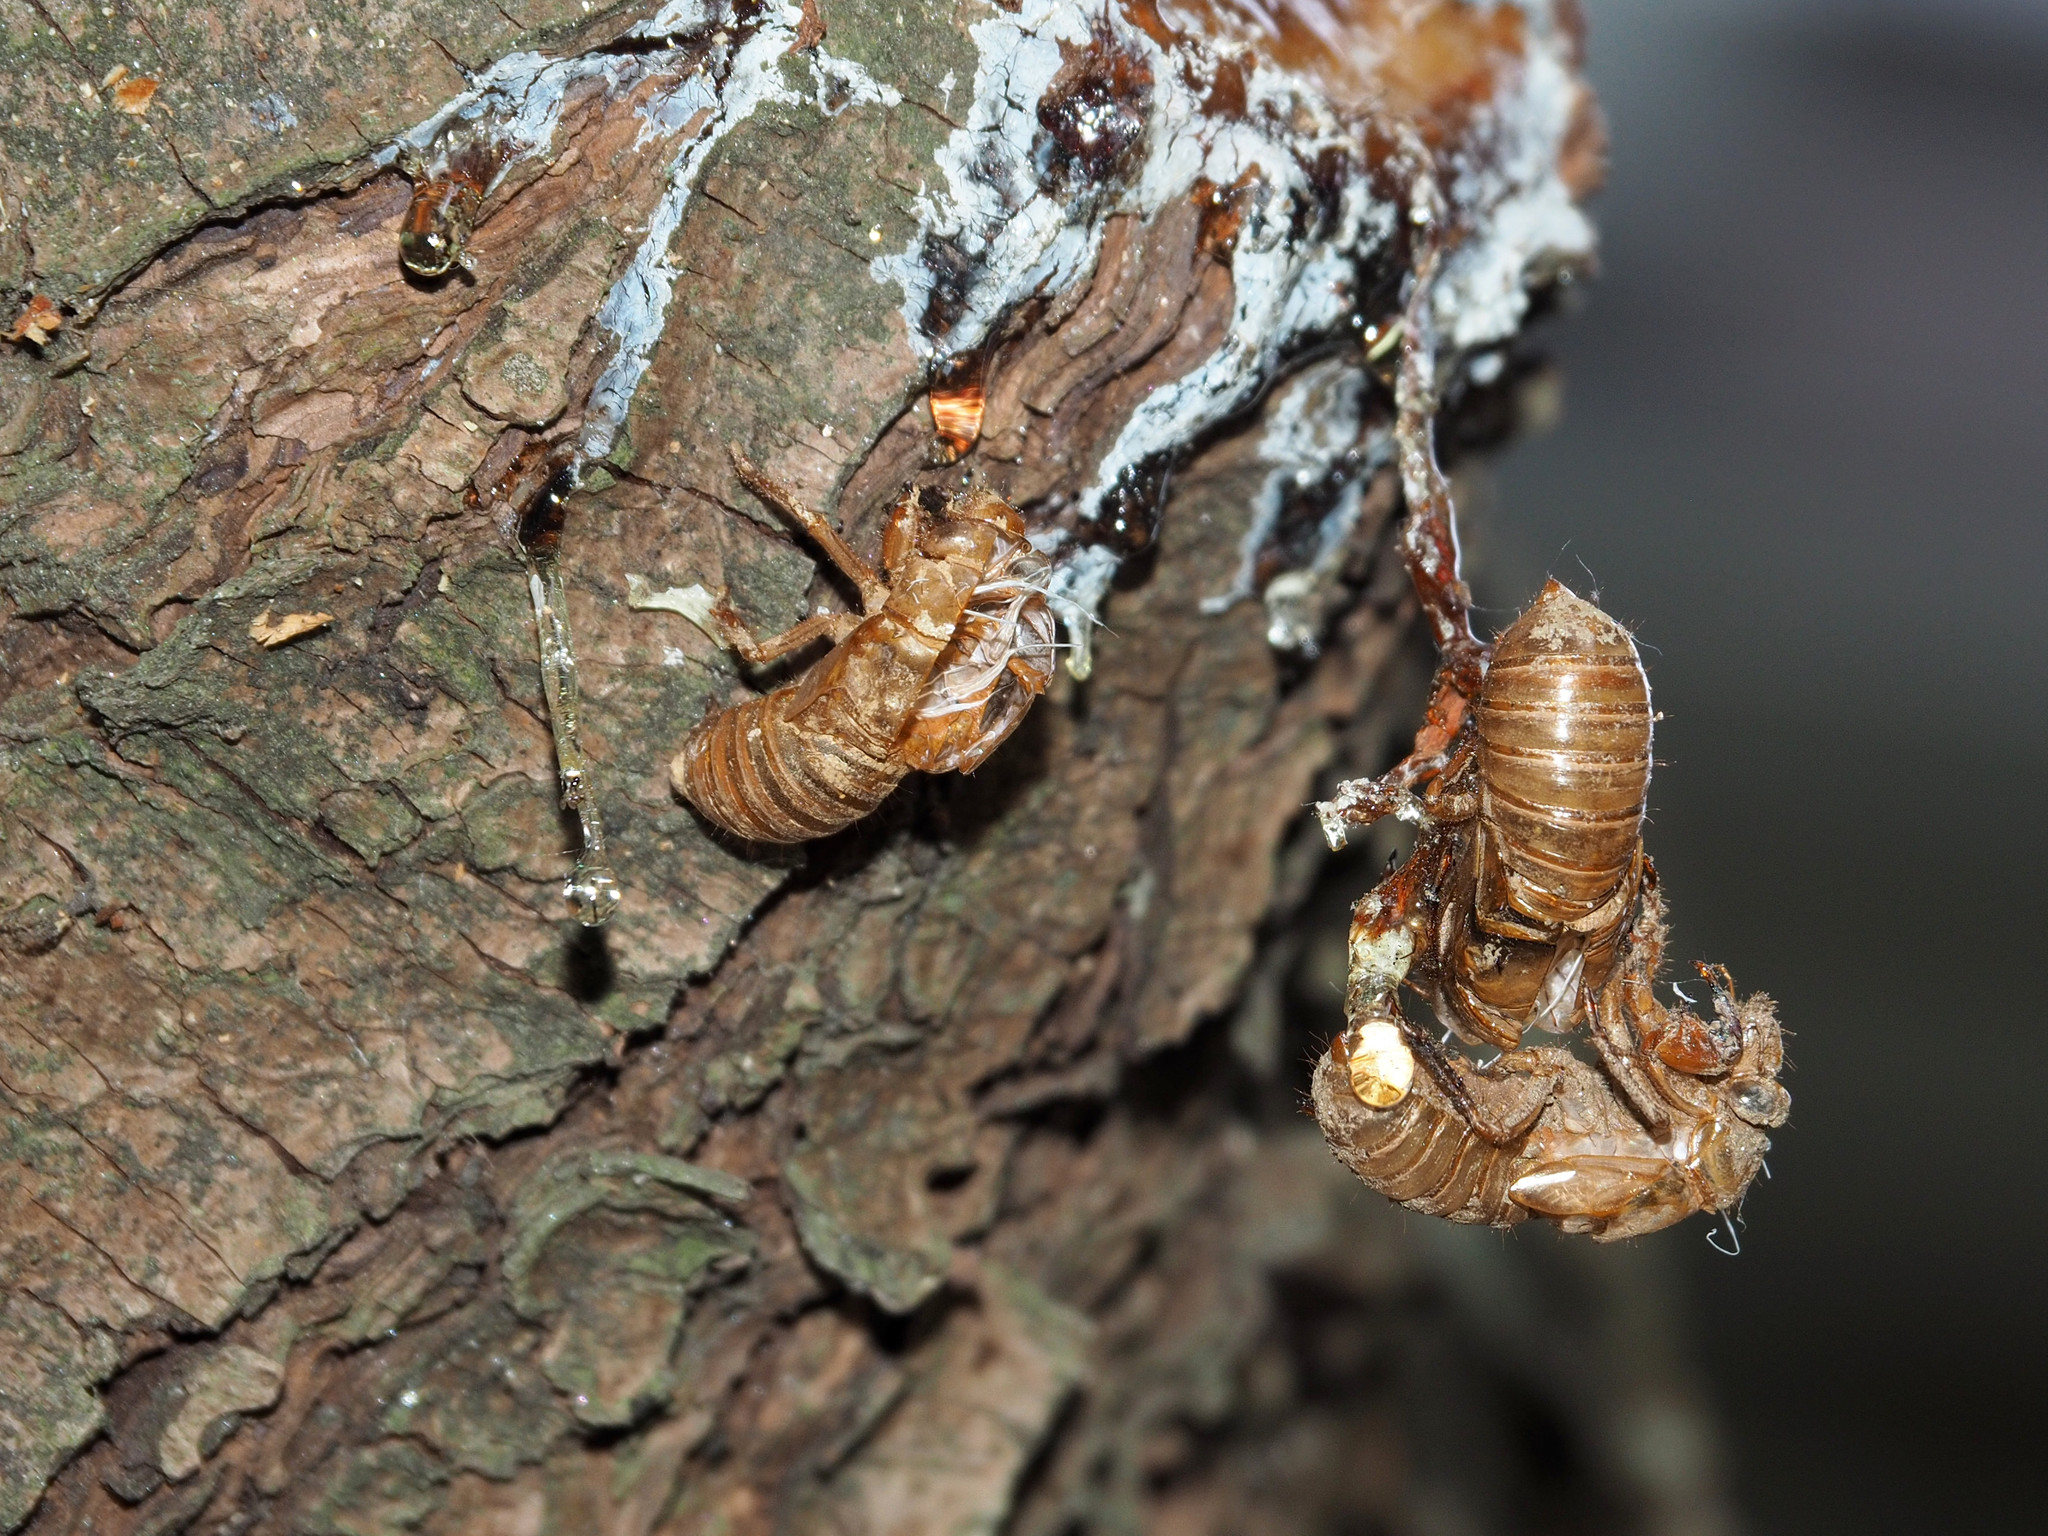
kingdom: Animalia
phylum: Arthropoda
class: Insecta
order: Hemiptera
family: Cicadidae
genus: Magicicada
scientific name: Magicicada
